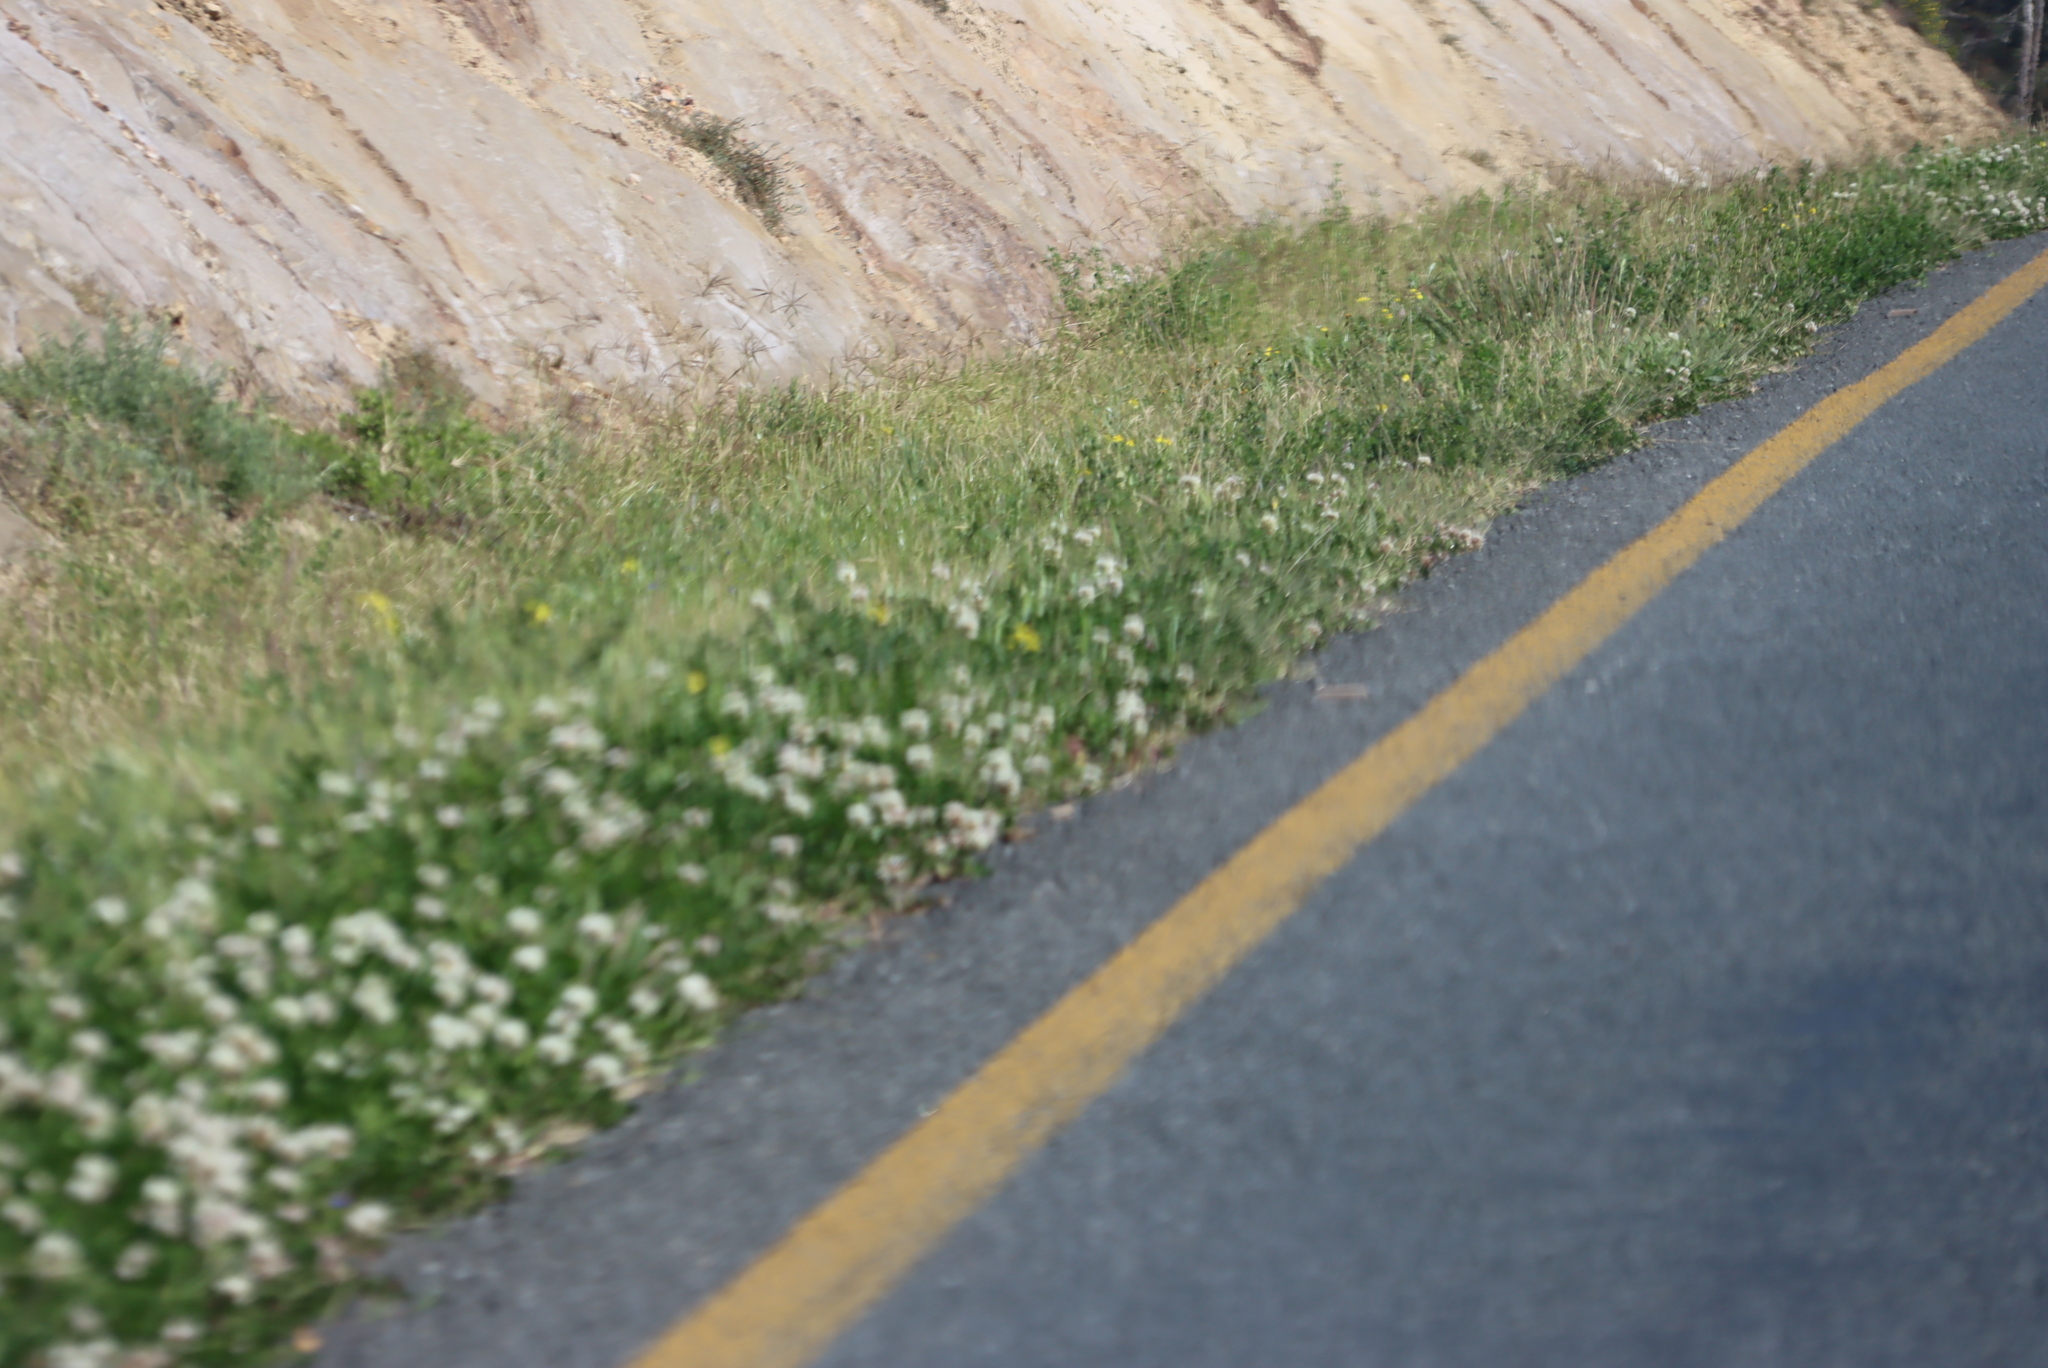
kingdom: Plantae
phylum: Tracheophyta
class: Magnoliopsida
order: Fabales
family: Fabaceae
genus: Trifolium
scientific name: Trifolium repens
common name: White clover
